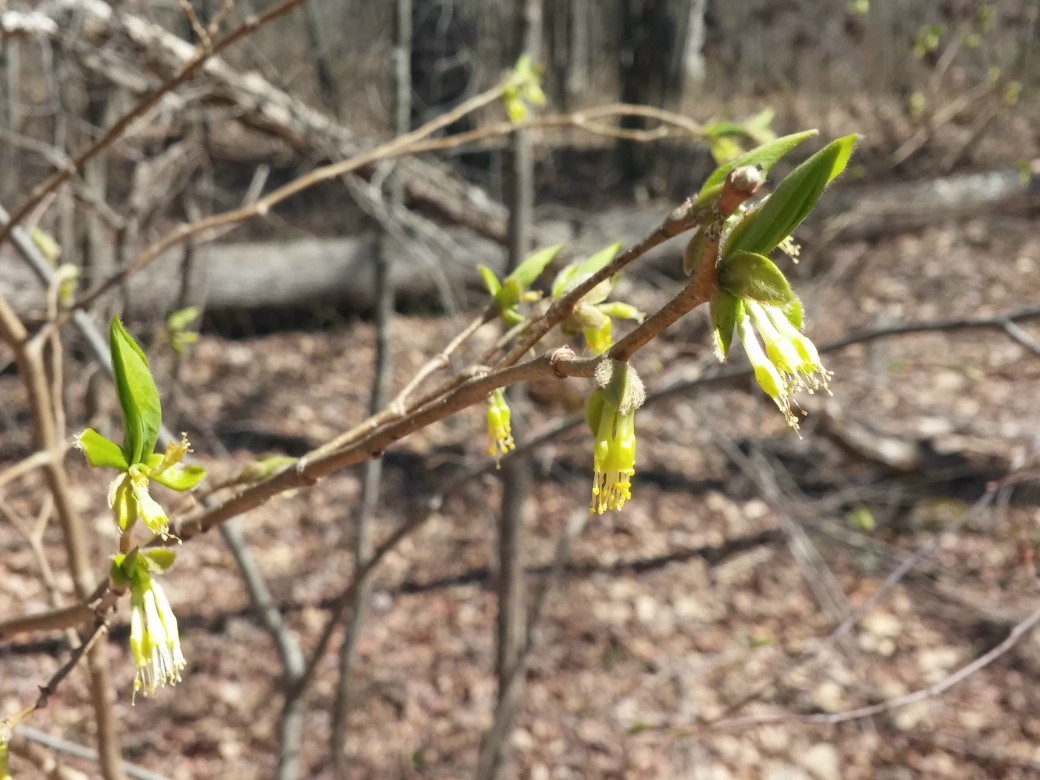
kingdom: Plantae
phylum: Tracheophyta
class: Magnoliopsida
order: Malvales
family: Thymelaeaceae
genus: Dirca
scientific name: Dirca palustris
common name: Leatherwood
